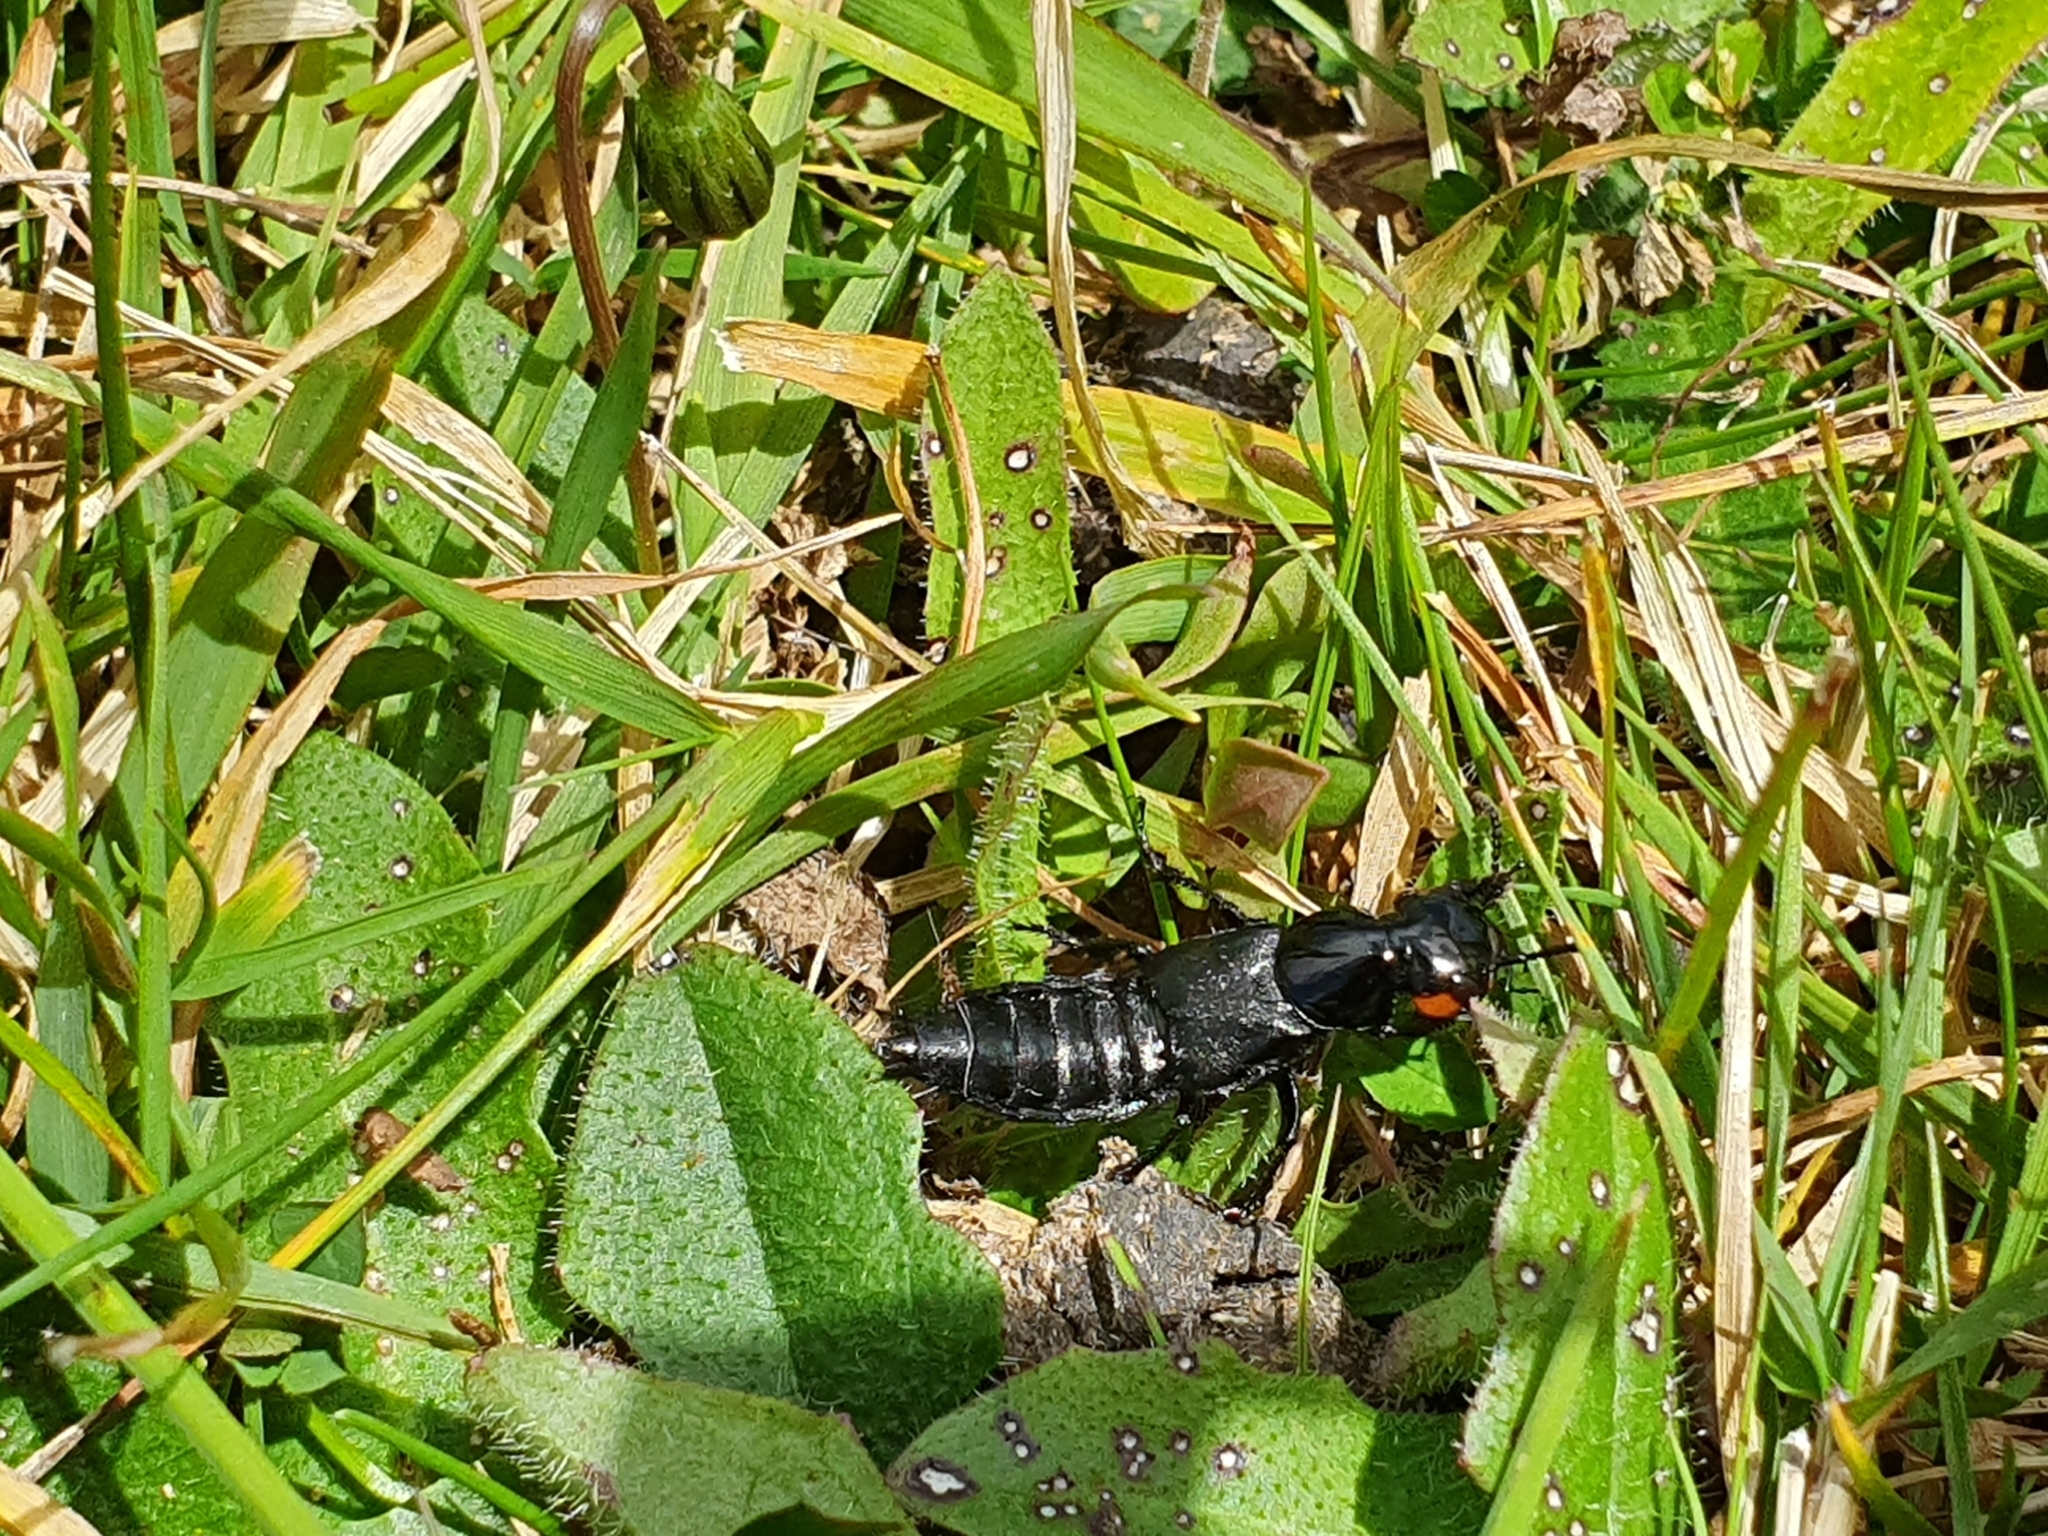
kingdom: Animalia
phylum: Arthropoda
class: Insecta
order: Coleoptera
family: Staphylinidae
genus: Creophilus
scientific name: Creophilus oculatus
